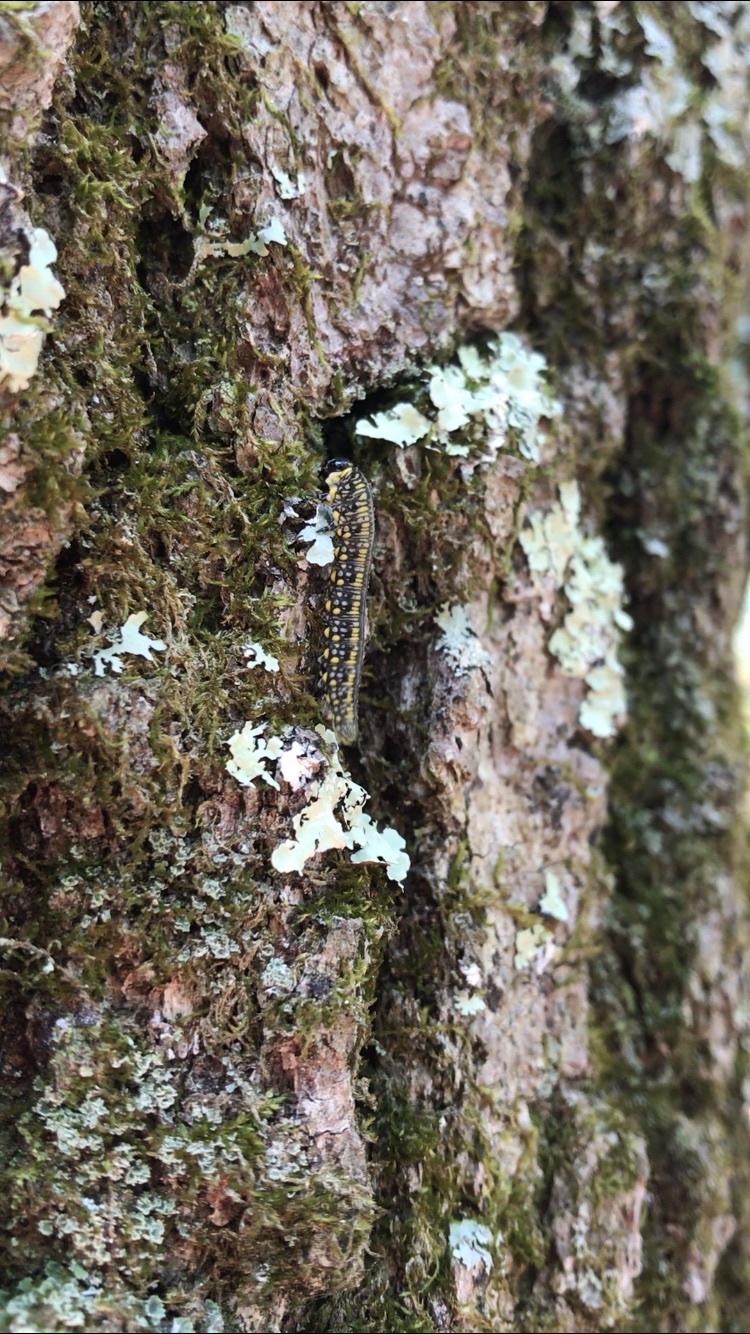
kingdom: Animalia
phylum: Arthropoda
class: Insecta
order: Hymenoptera
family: Diprionidae
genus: Diprion
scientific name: Diprion similis
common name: Pine sawfly
